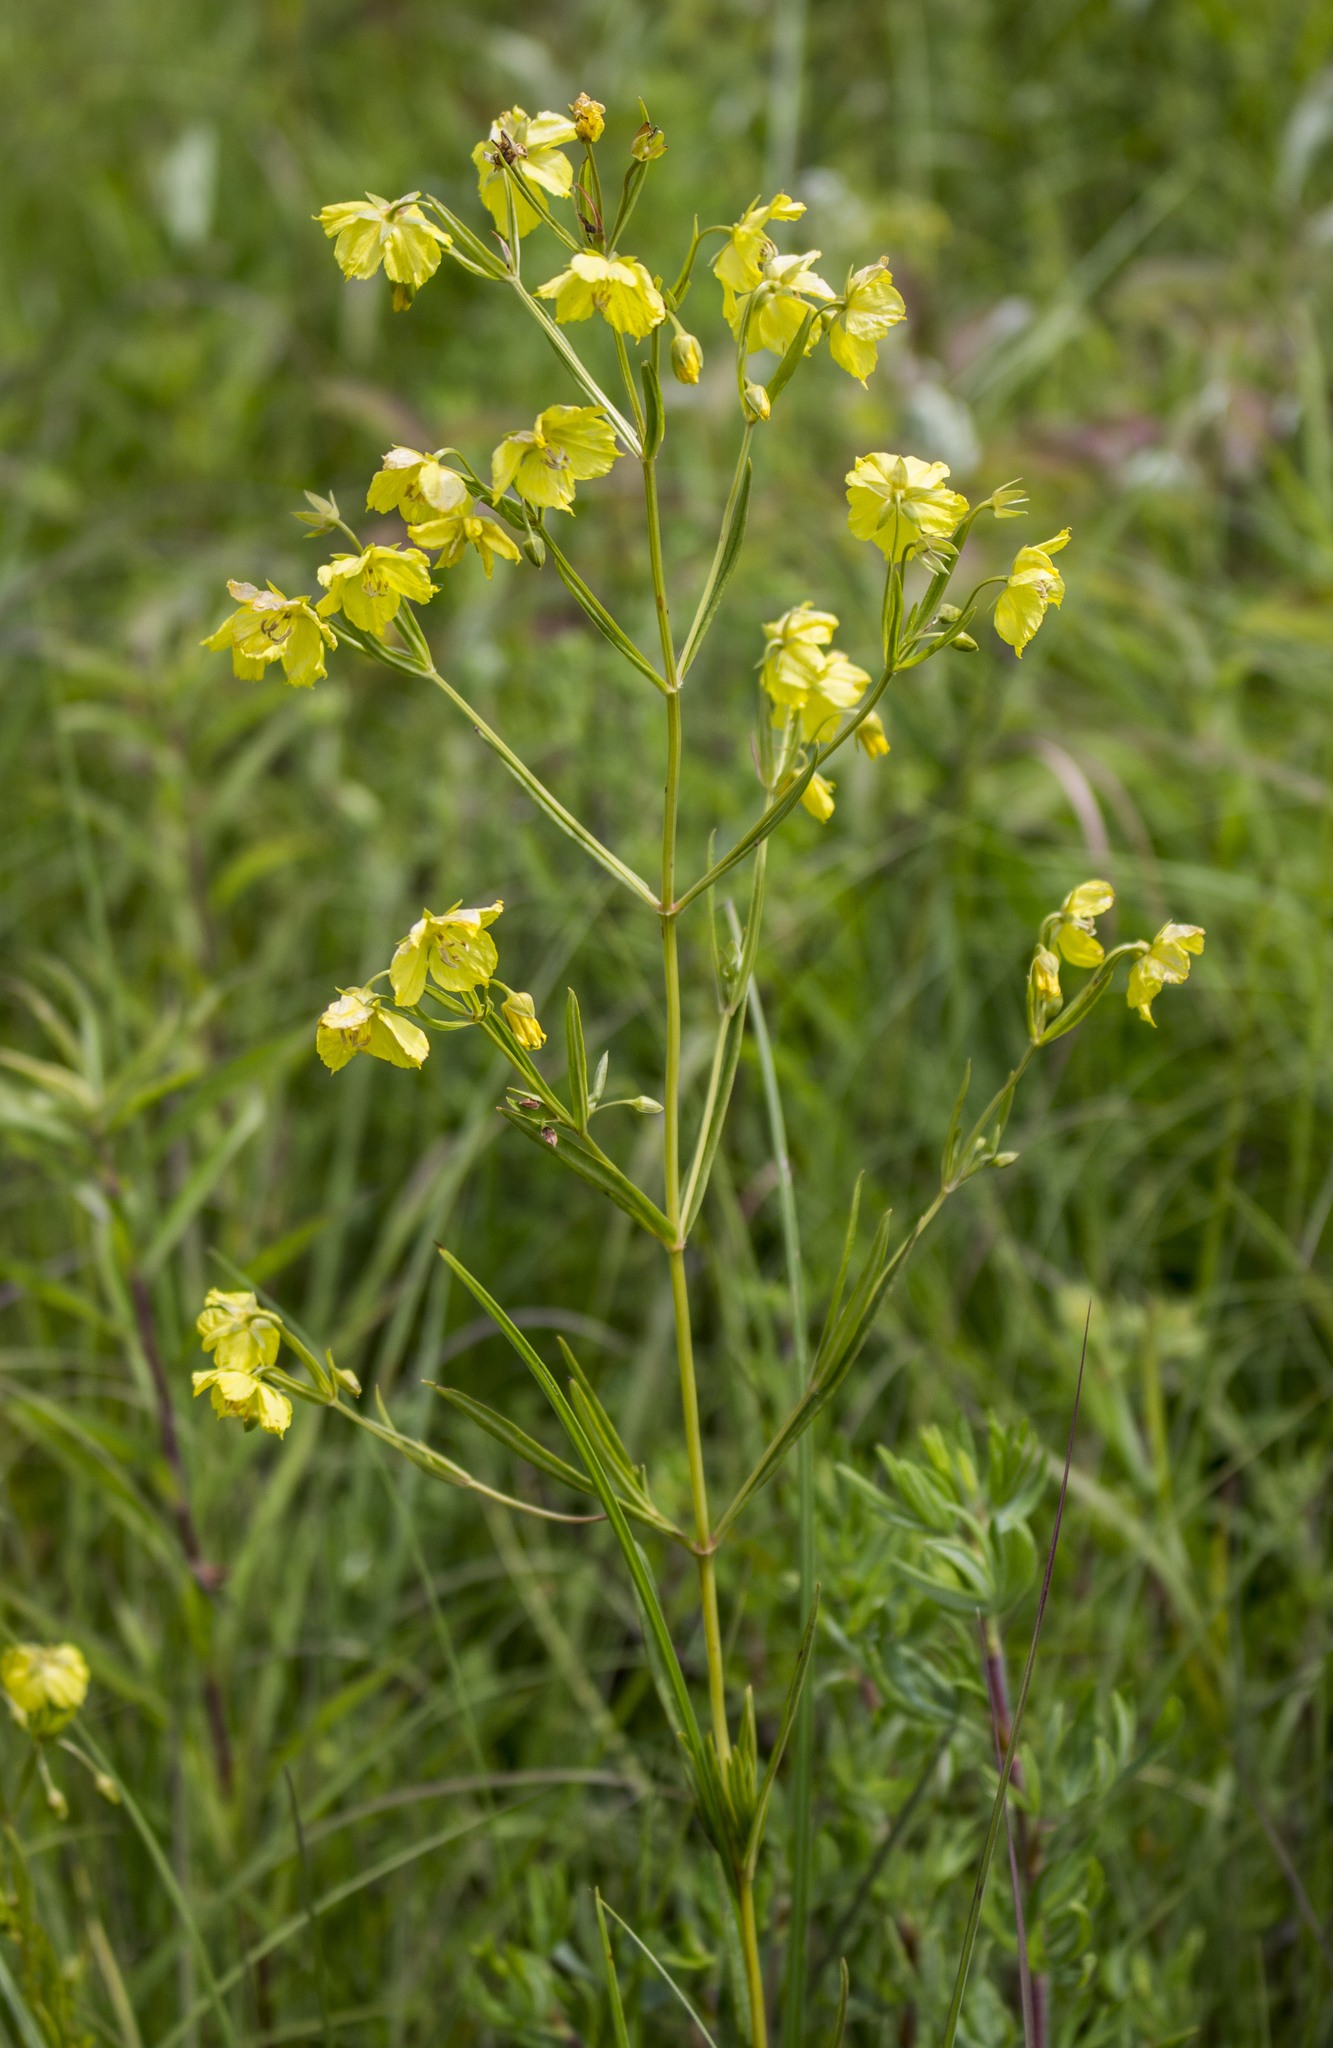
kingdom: Plantae
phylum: Tracheophyta
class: Magnoliopsida
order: Ericales
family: Primulaceae
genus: Lysimachia
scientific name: Lysimachia quadriflora
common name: Four-flowered loosestrife
